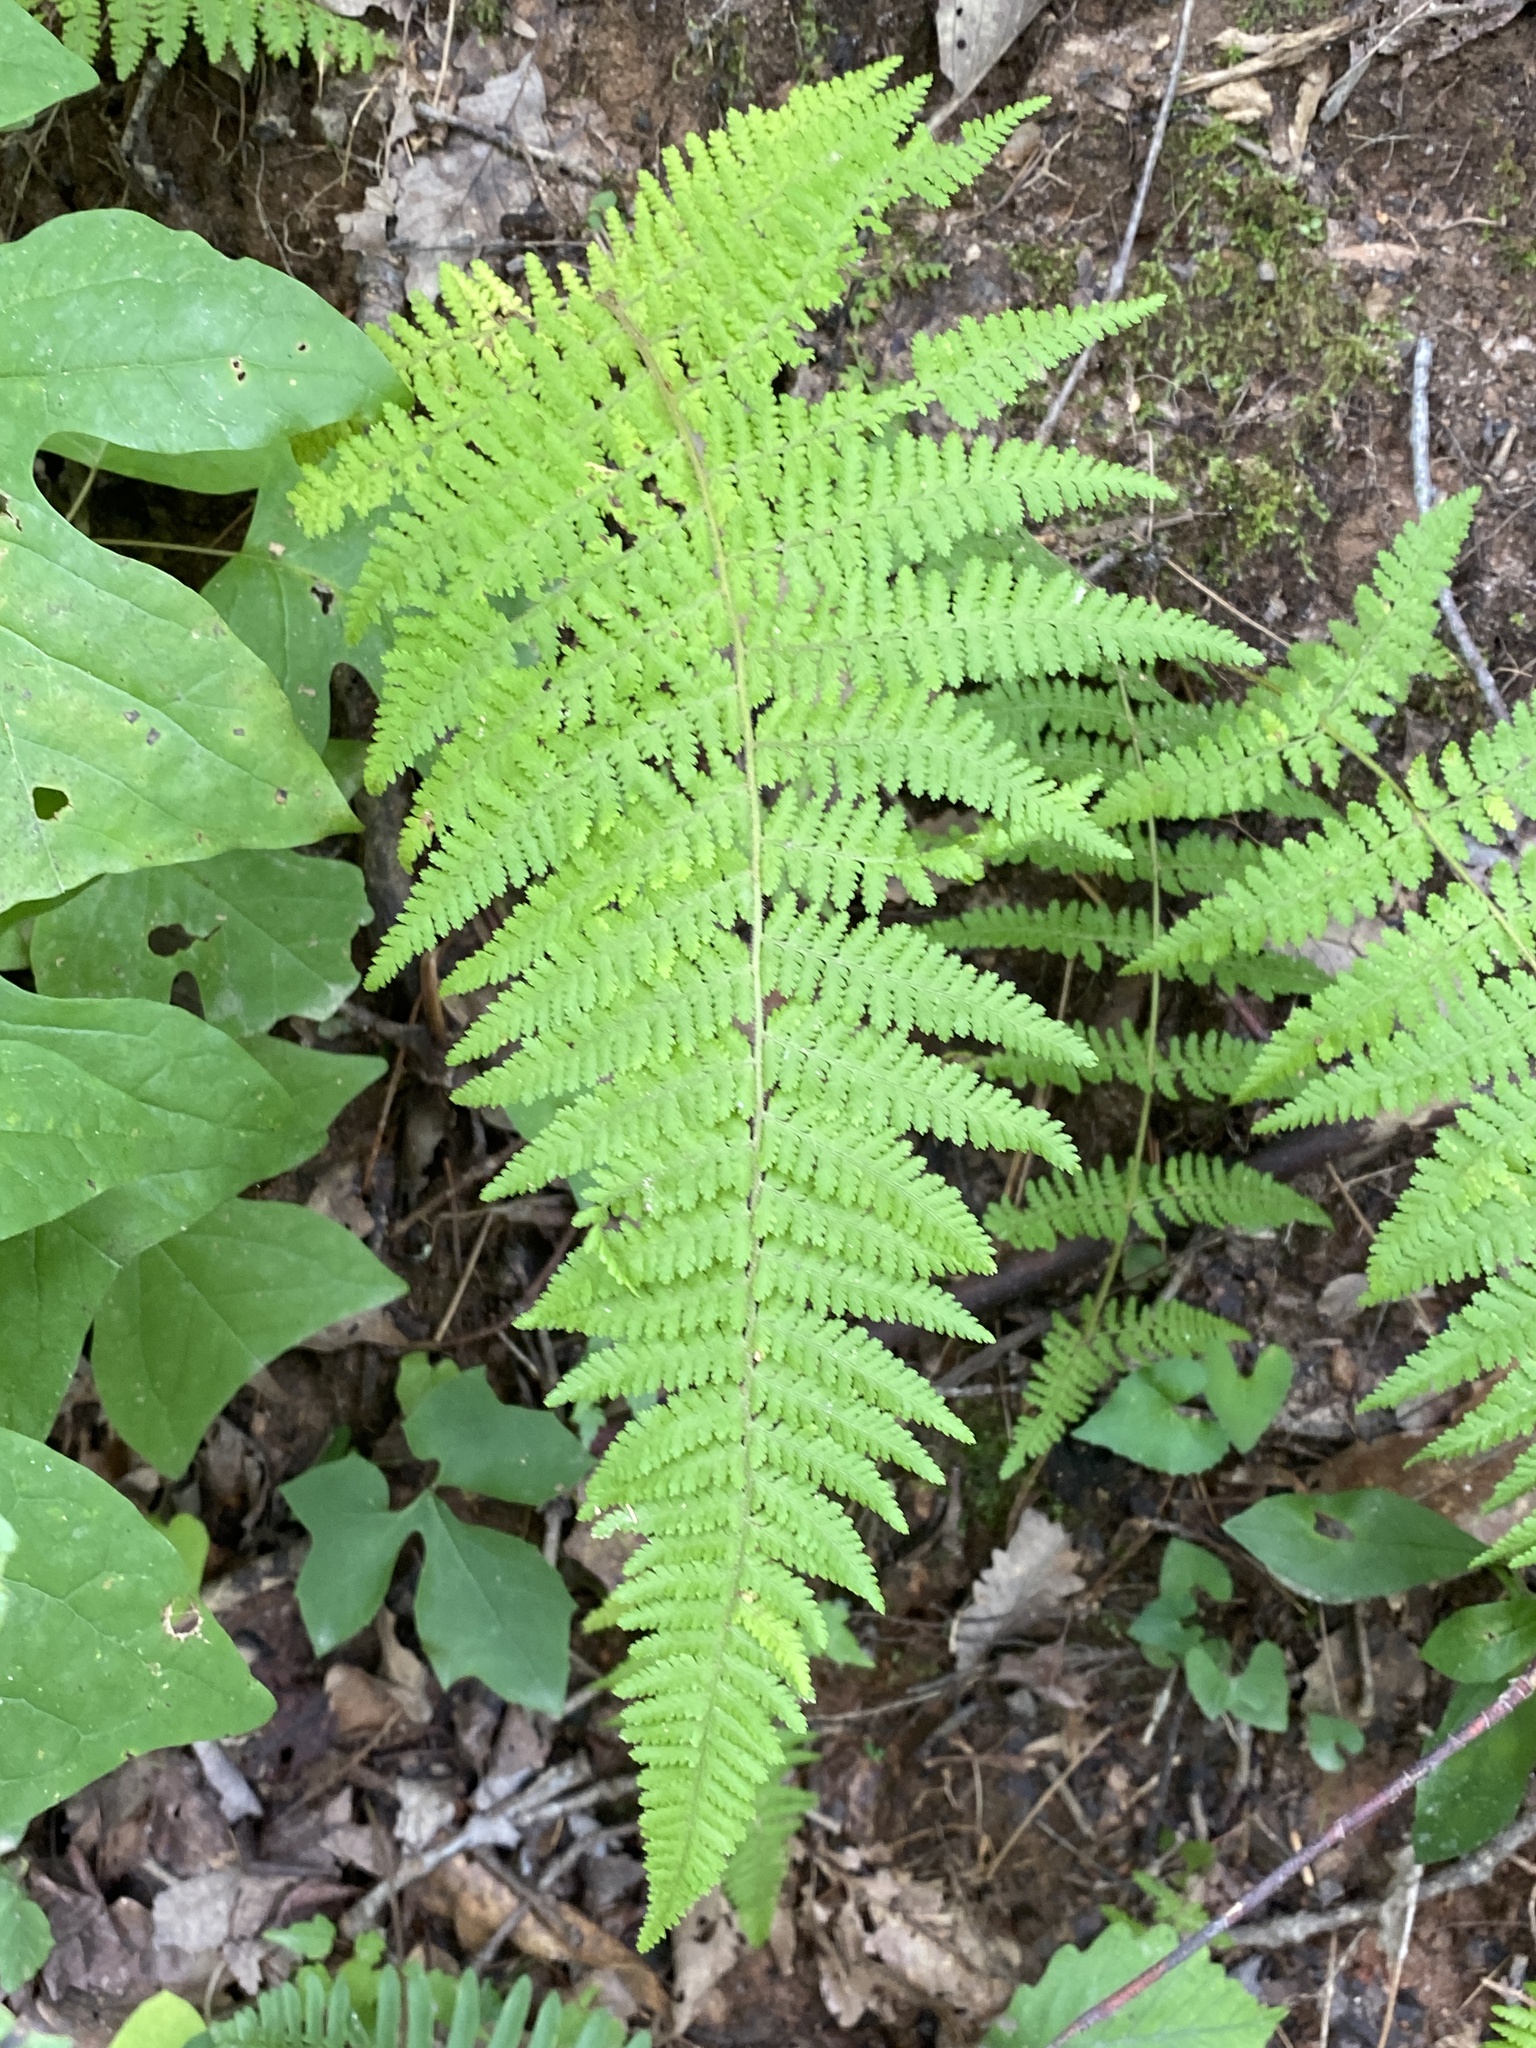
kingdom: Plantae
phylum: Tracheophyta
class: Polypodiopsida
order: Polypodiales
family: Dennstaedtiaceae
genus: Sitobolium
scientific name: Sitobolium punctilobum
